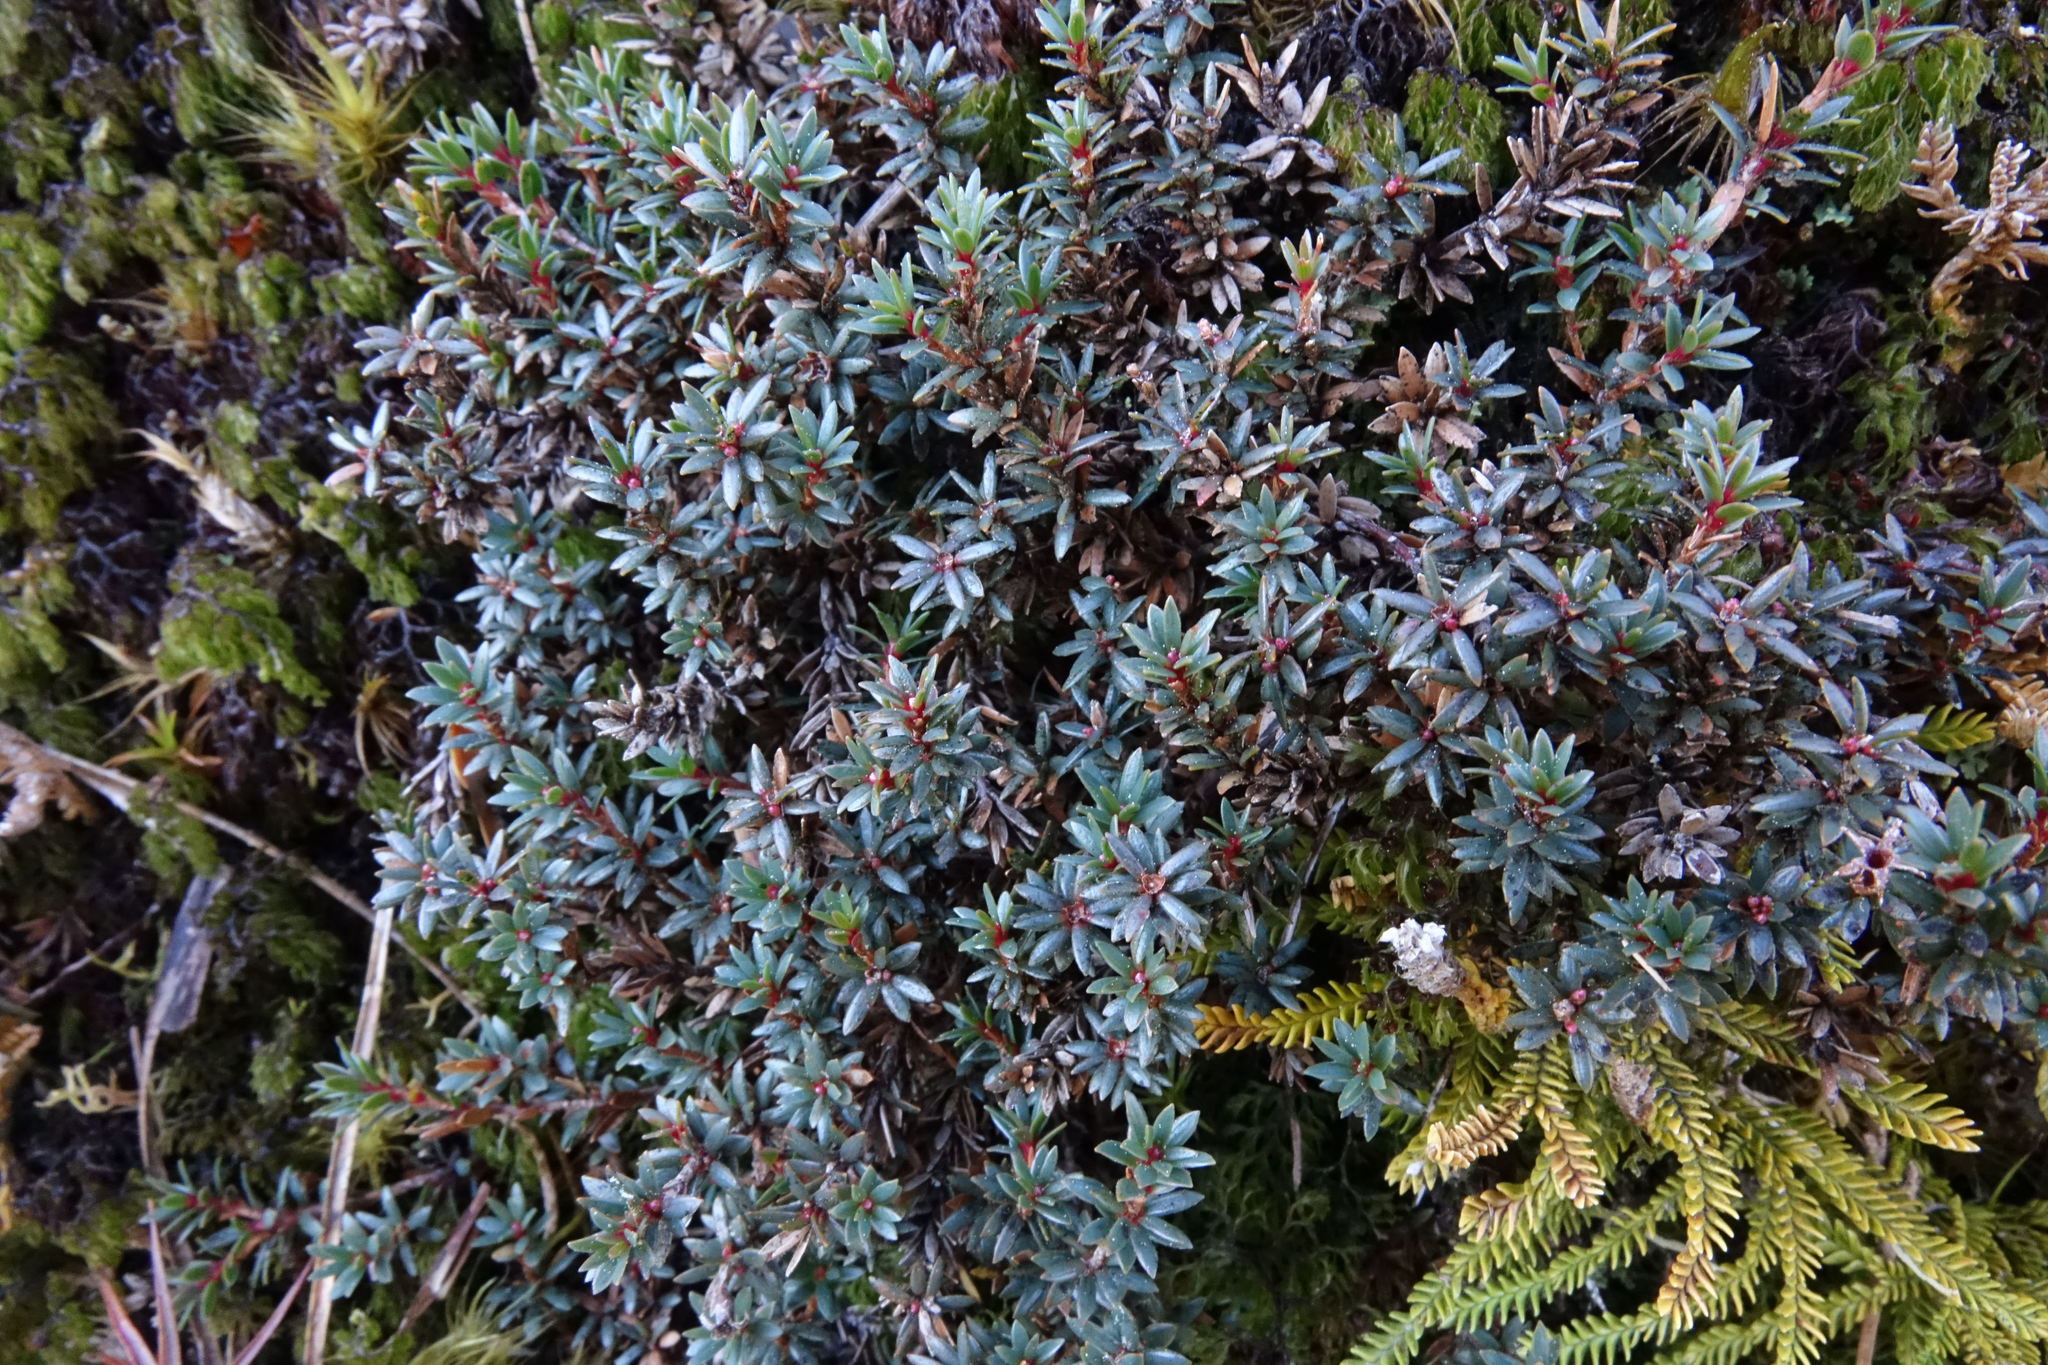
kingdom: Plantae
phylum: Tracheophyta
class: Magnoliopsida
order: Ericales
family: Ericaceae
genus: Pentachondra
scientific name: Pentachondra pumila
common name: Carpet-heath
